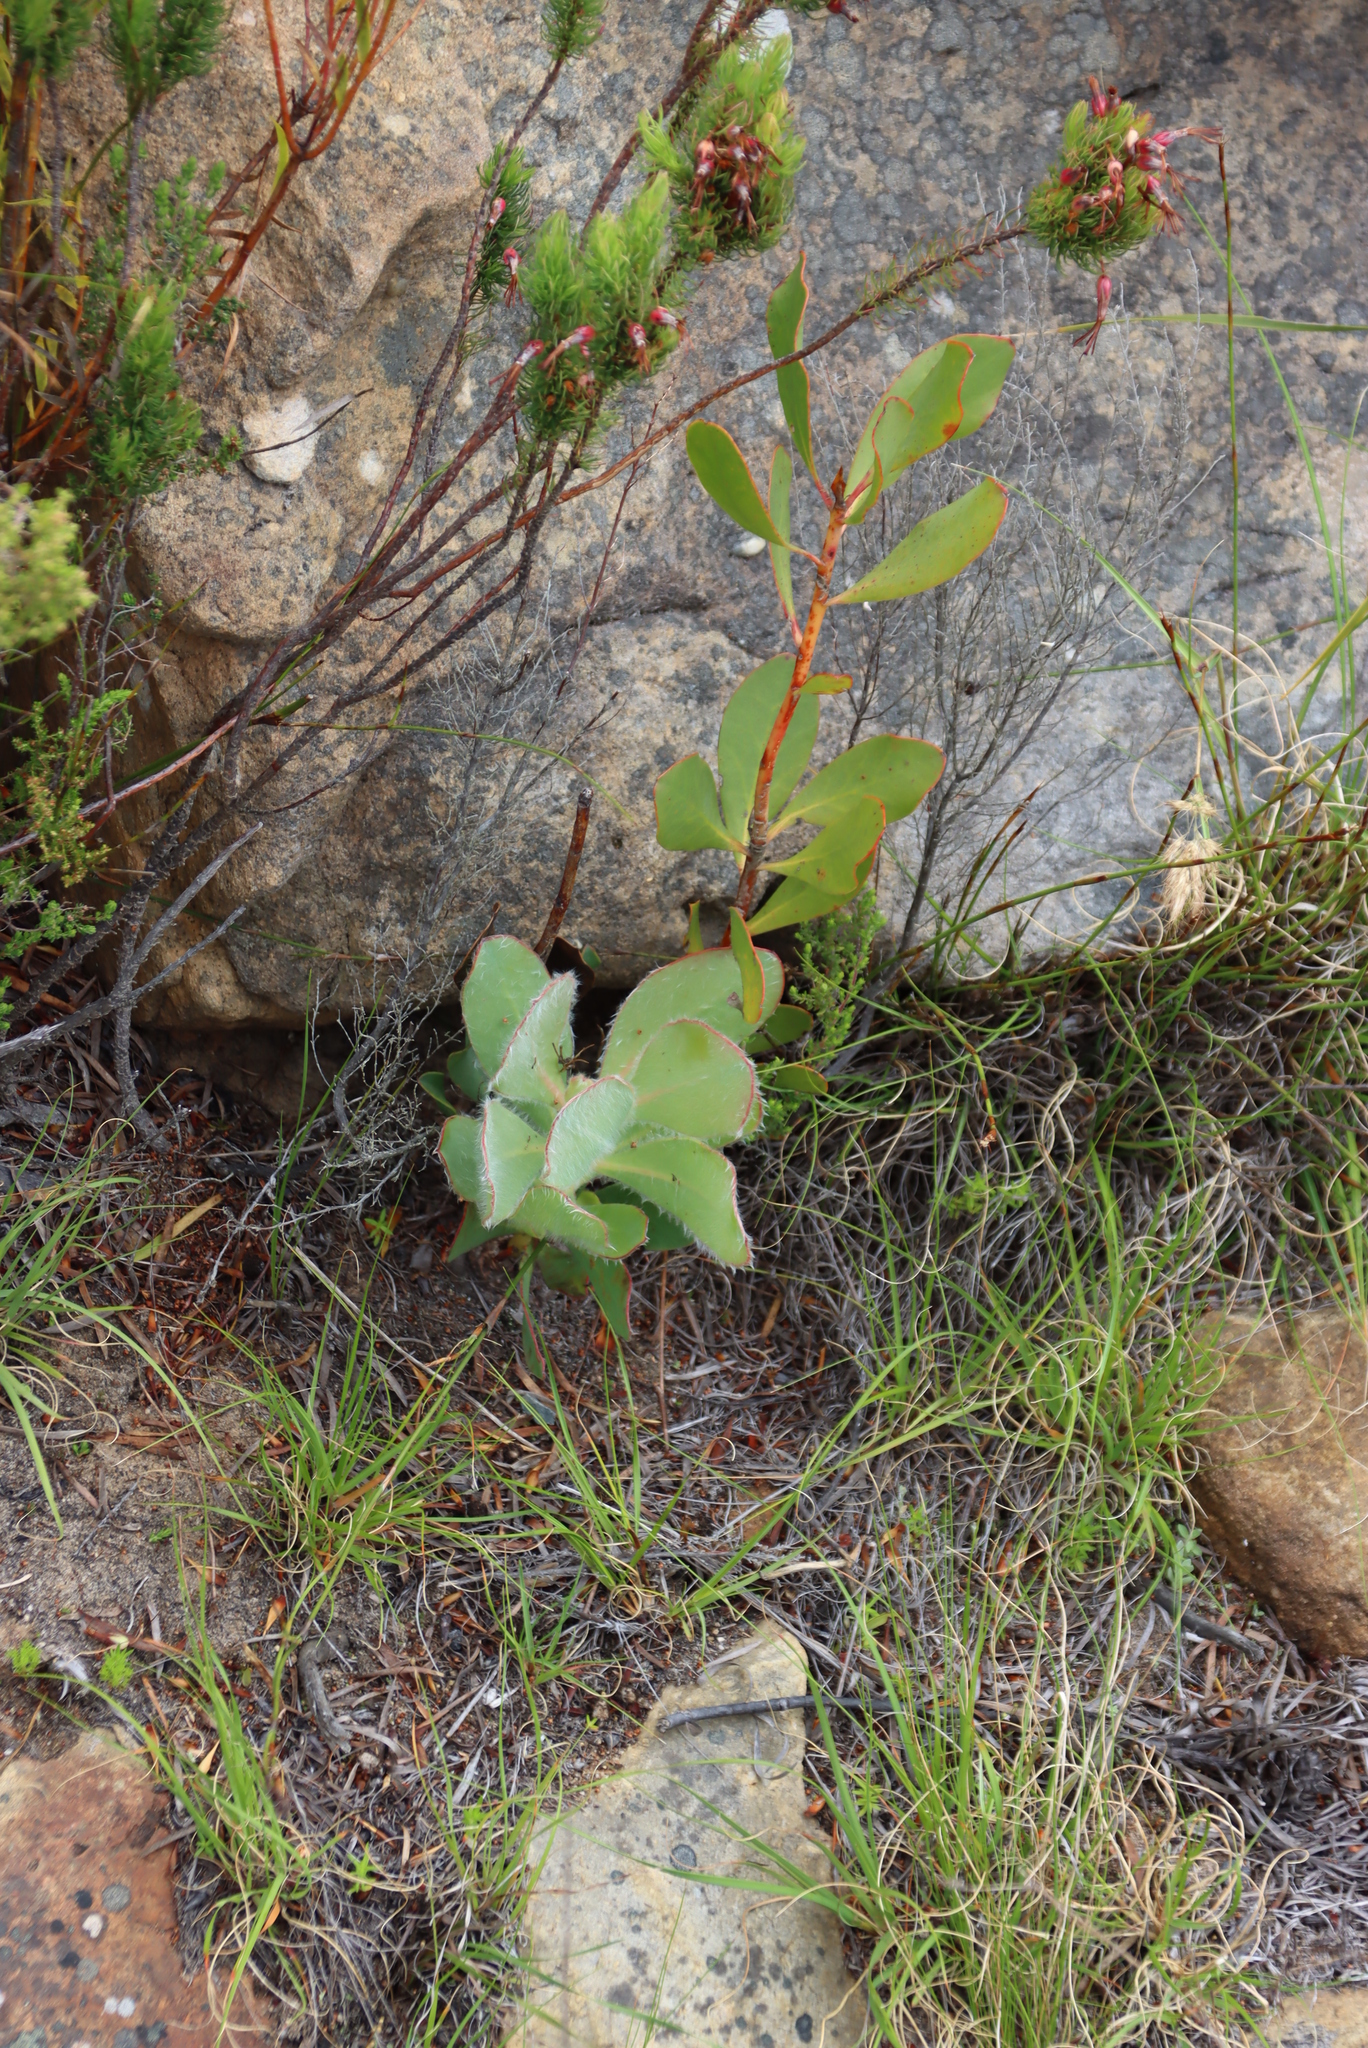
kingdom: Plantae
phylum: Tracheophyta
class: Magnoliopsida
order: Proteales
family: Proteaceae
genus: Protea
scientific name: Protea speciosa
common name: Brown-beard sugarbush
